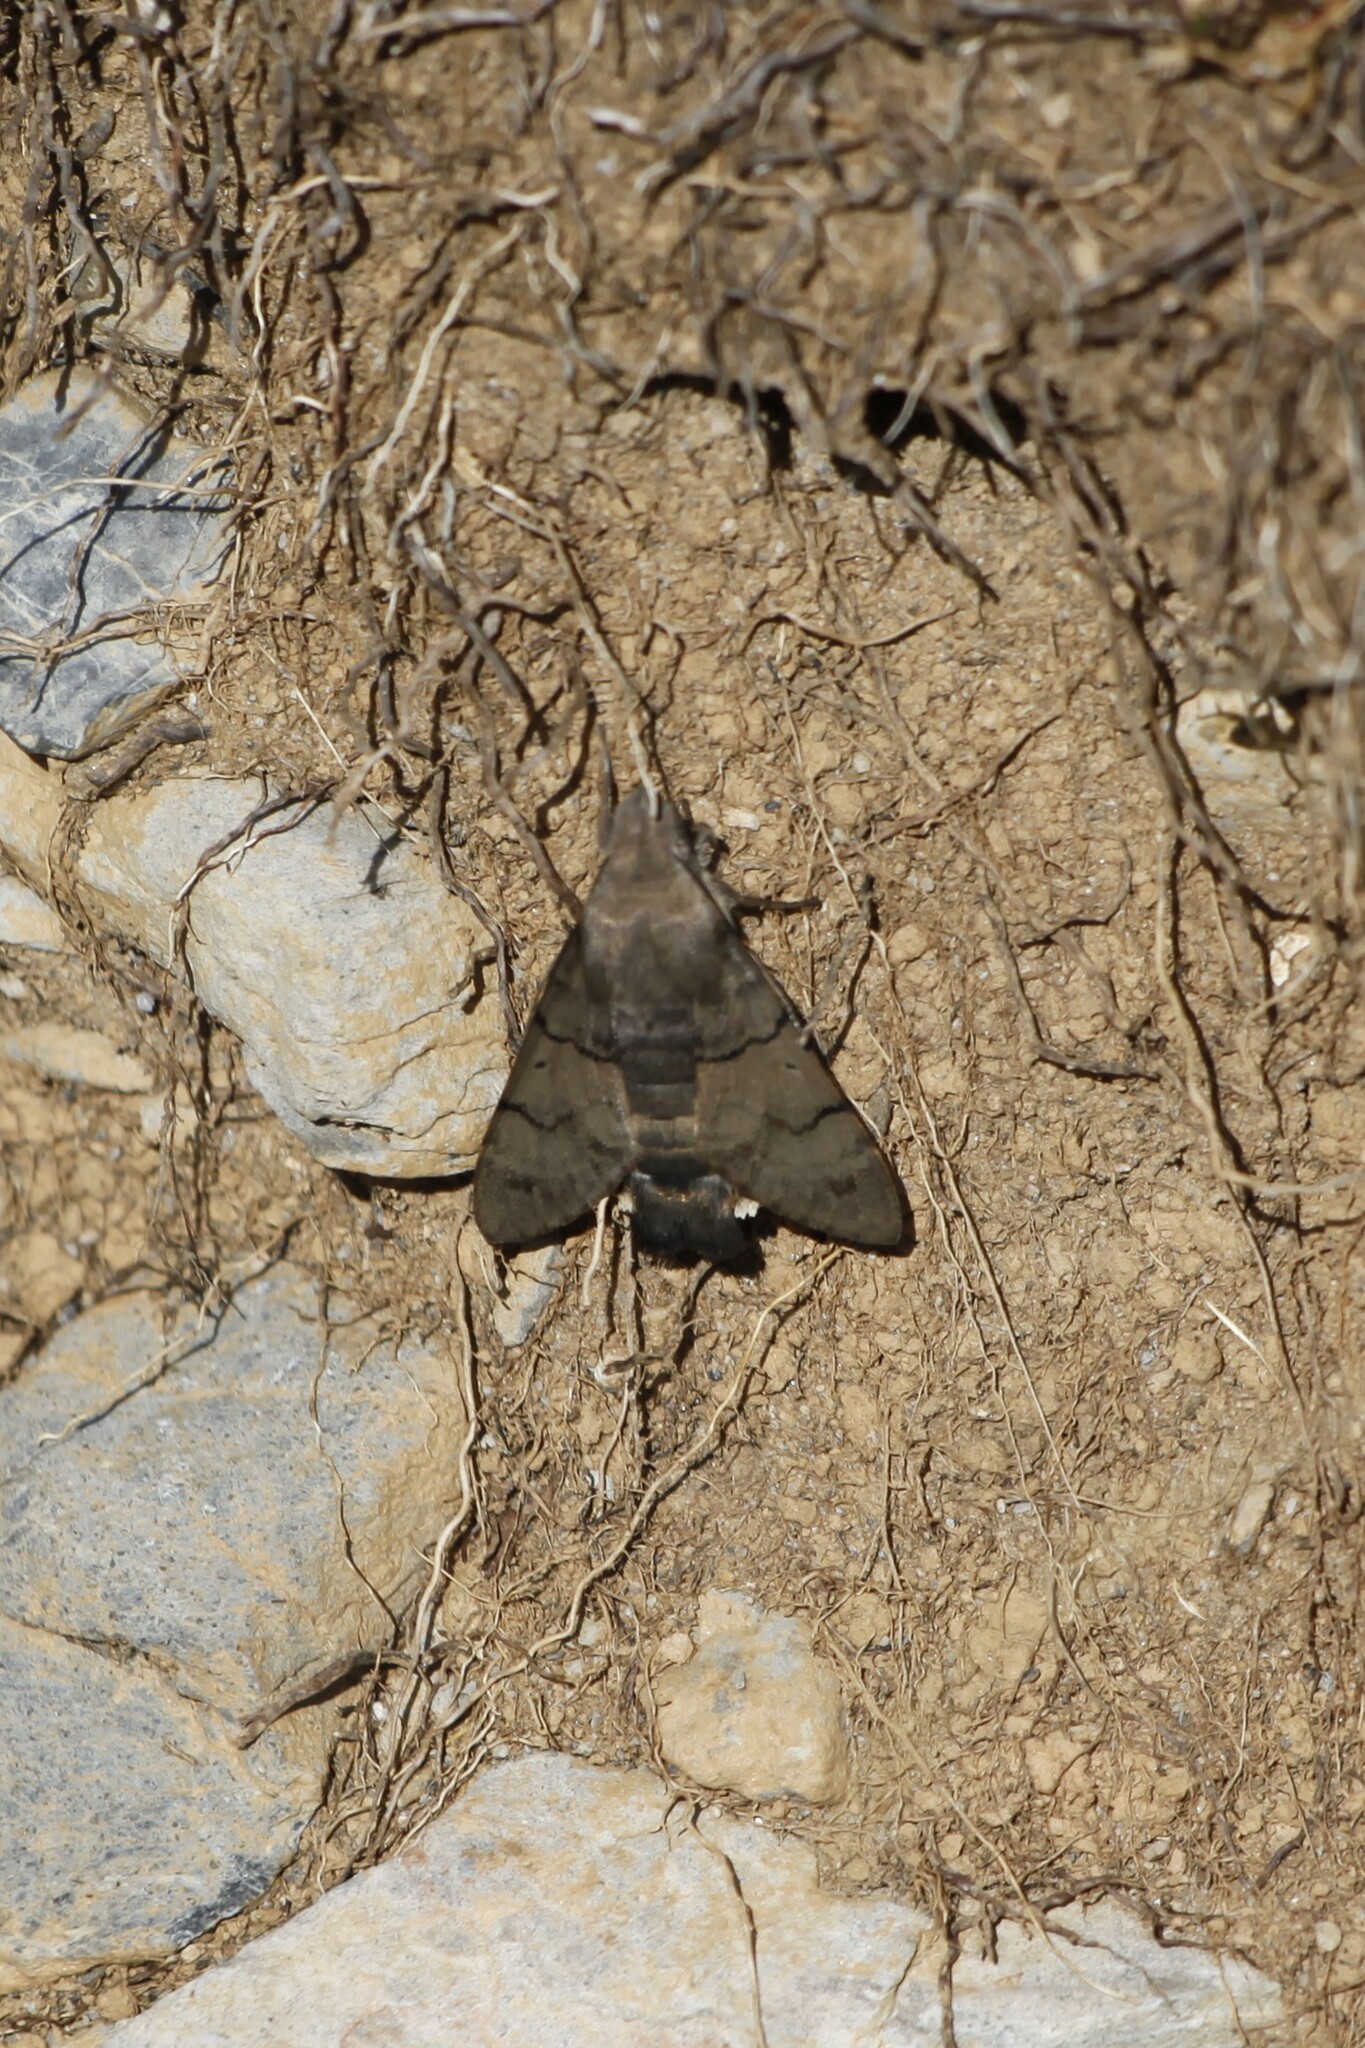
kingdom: Animalia
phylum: Arthropoda
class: Insecta
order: Lepidoptera
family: Sphingidae
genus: Macroglossum
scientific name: Macroglossum stellatarum
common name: Humming-bird hawk-moth
